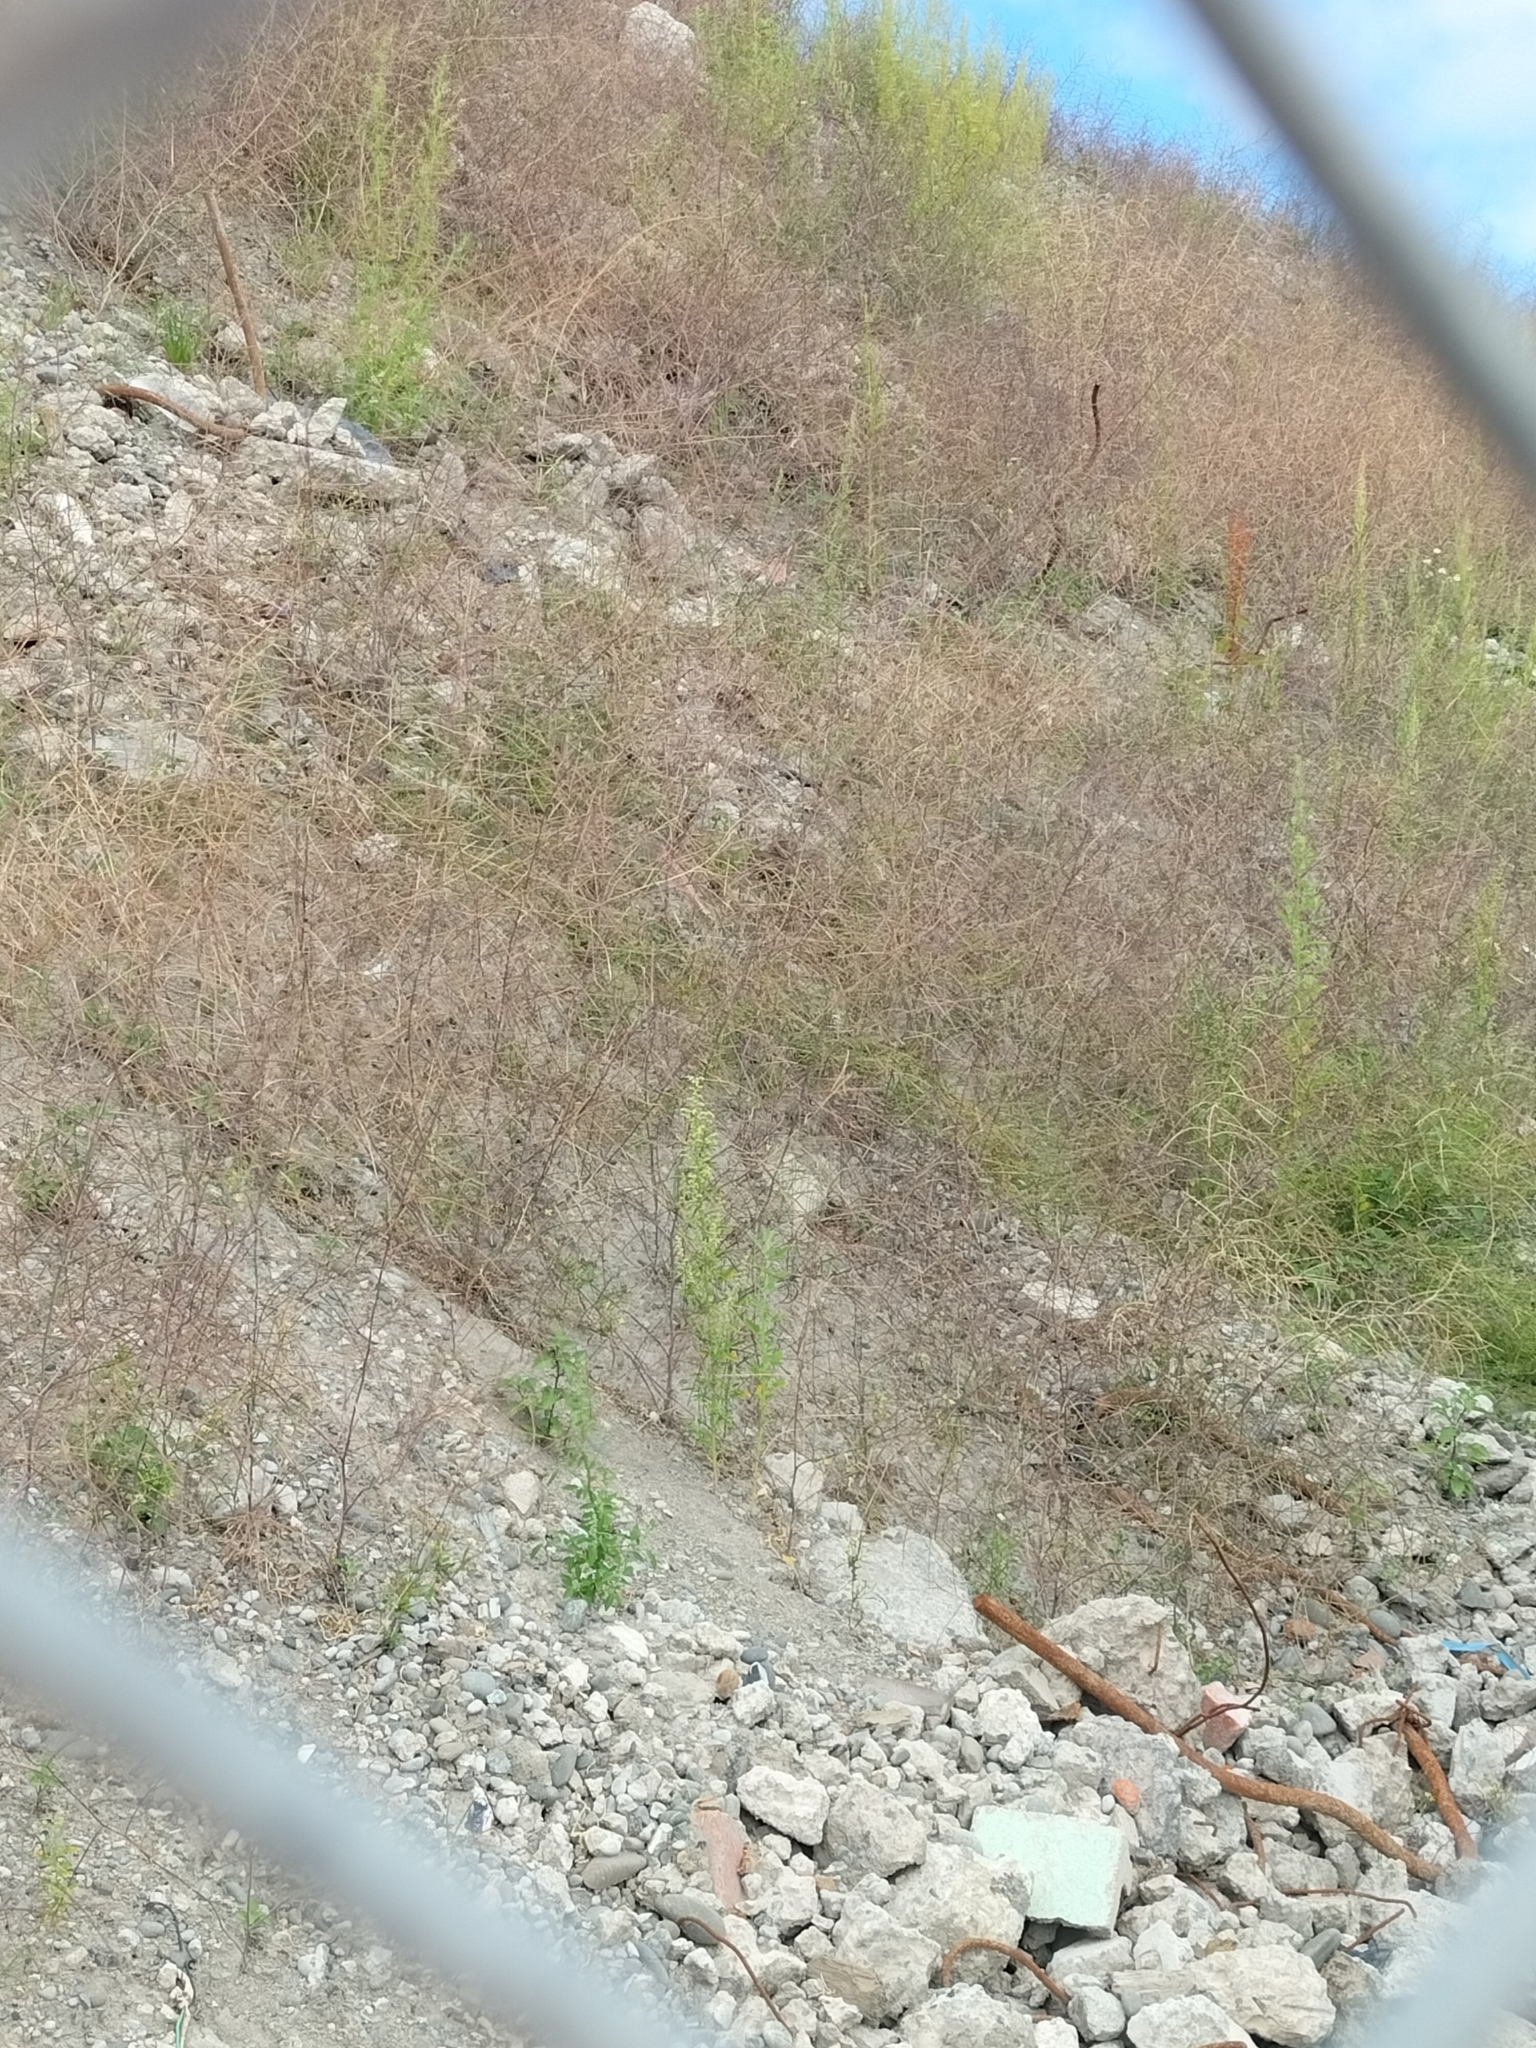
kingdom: Plantae
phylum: Tracheophyta
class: Magnoliopsida
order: Brassicales
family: Brassicaceae
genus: Sisymbrium
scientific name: Sisymbrium orientale
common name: Eastern rocket
